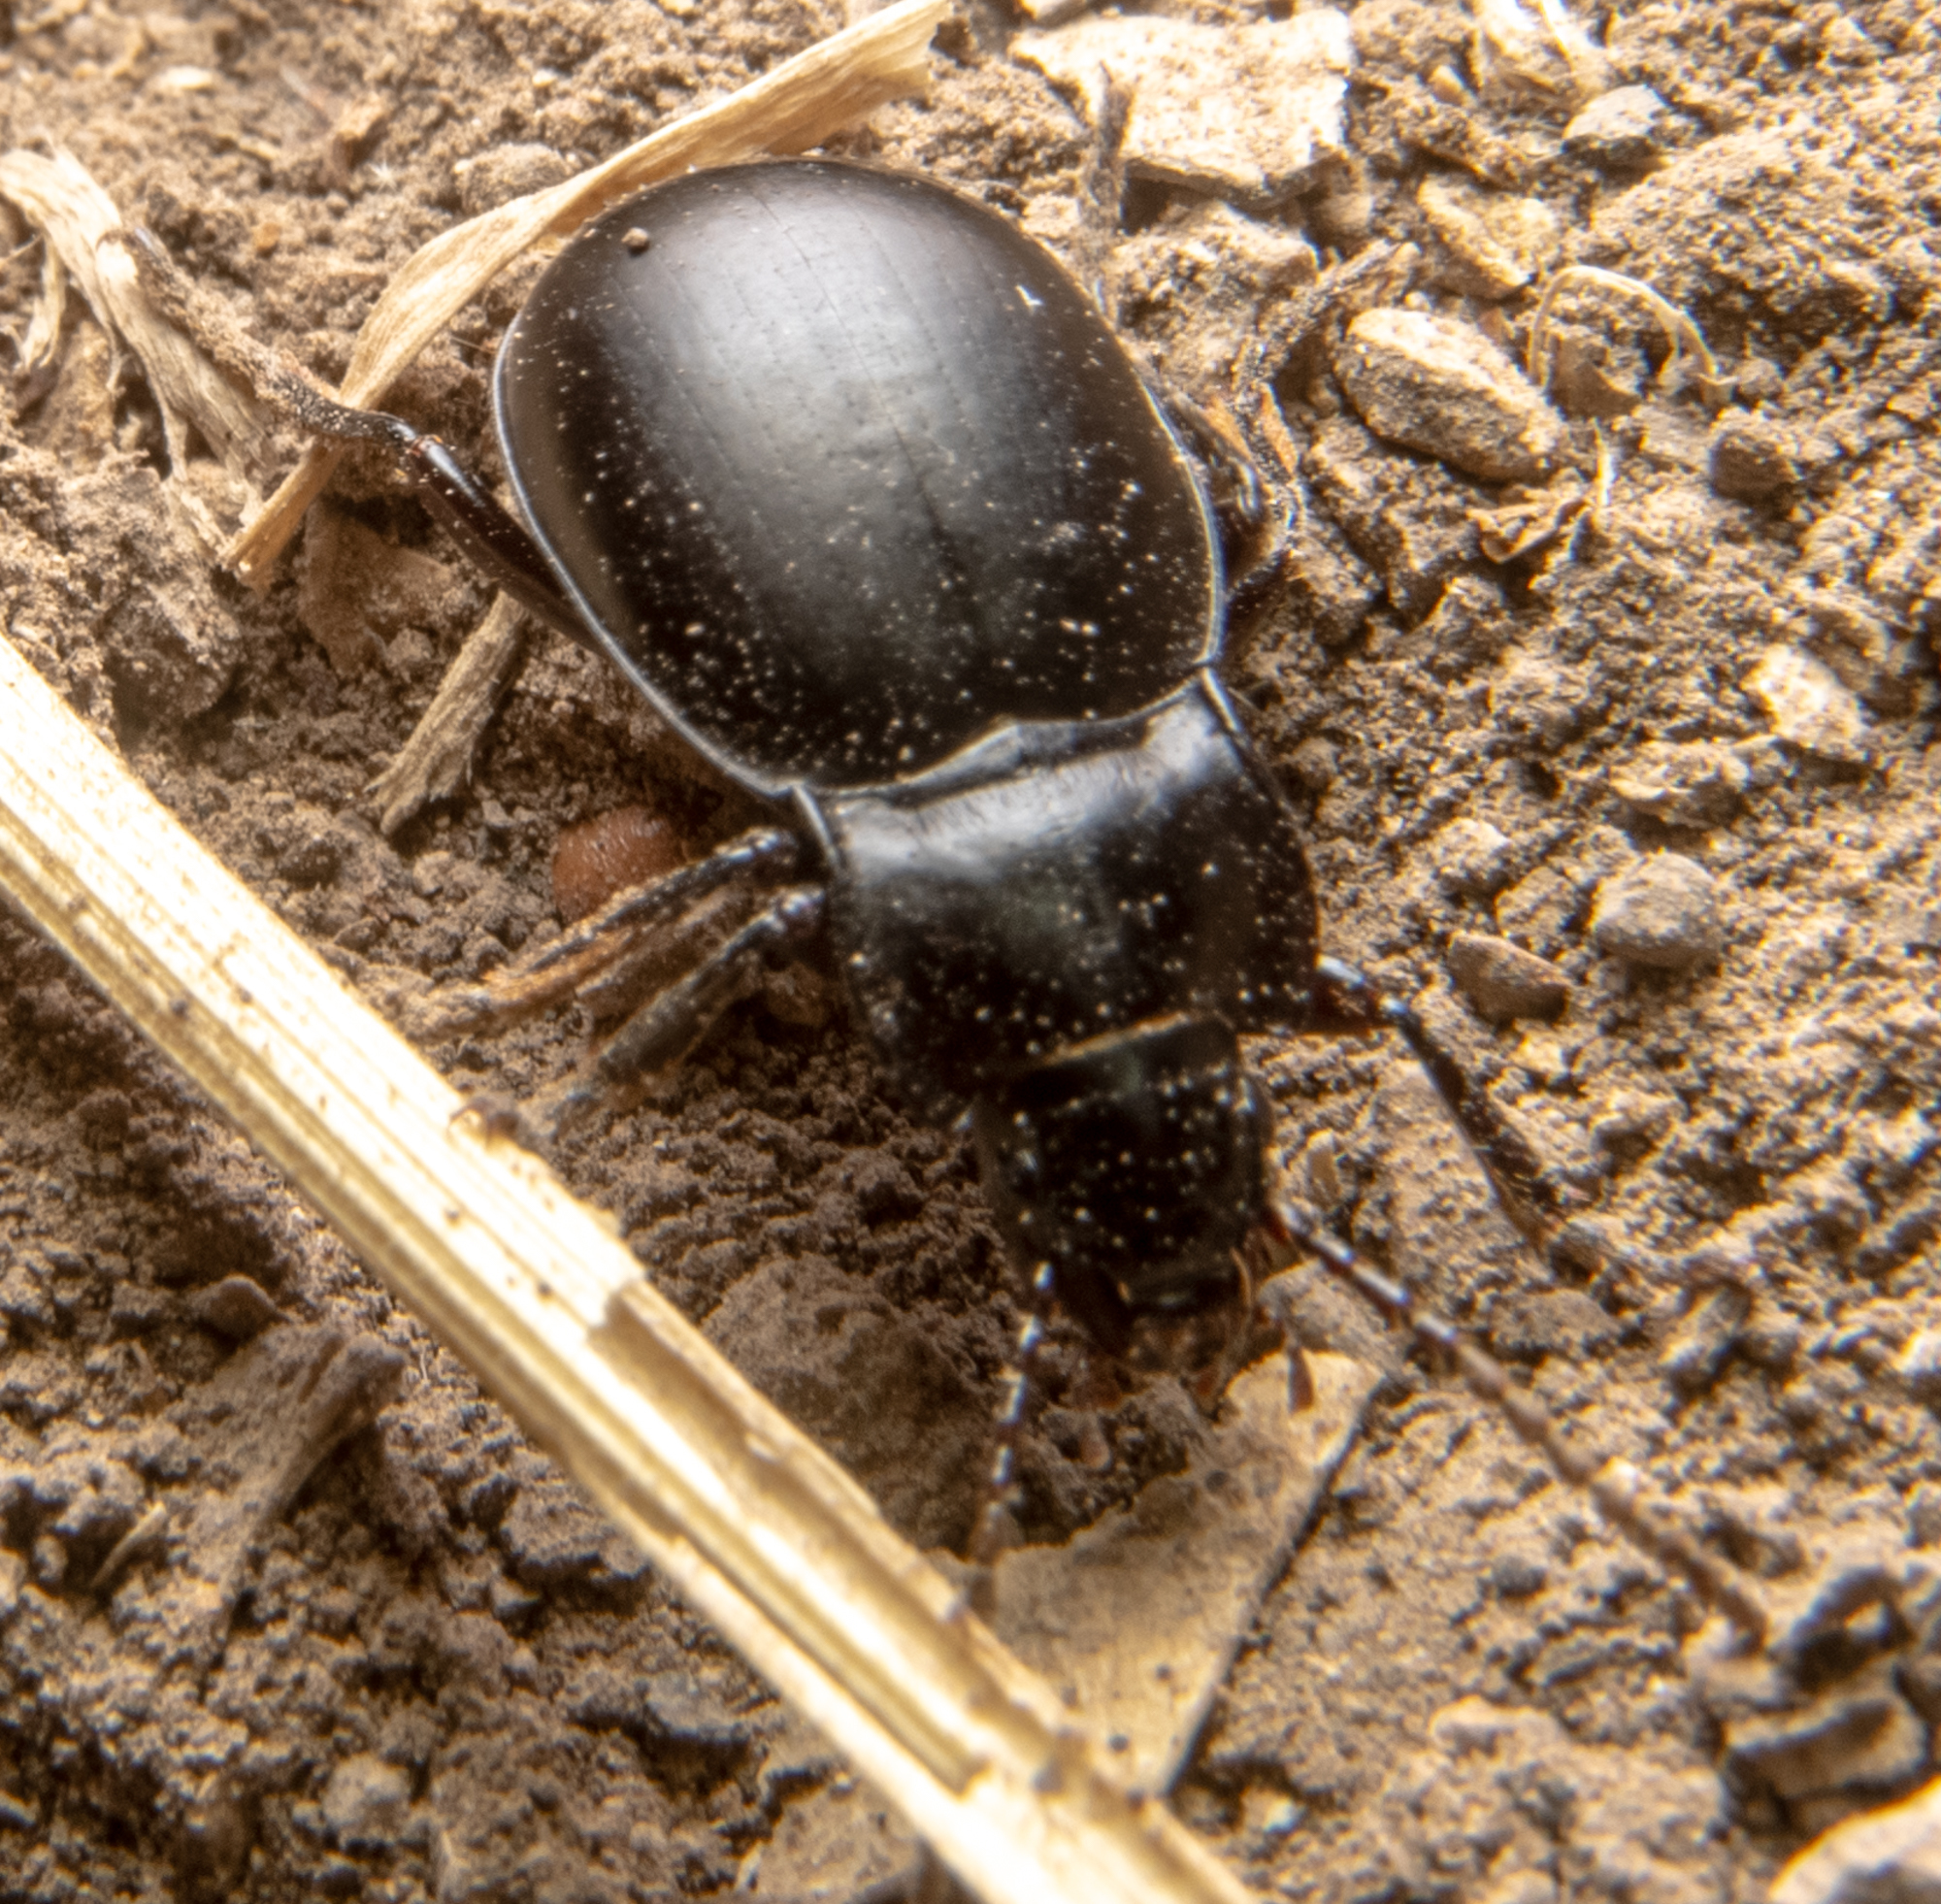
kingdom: Animalia
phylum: Arthropoda
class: Insecta
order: Coleoptera
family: Carabidae
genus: Metrius
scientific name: Metrius contractus
